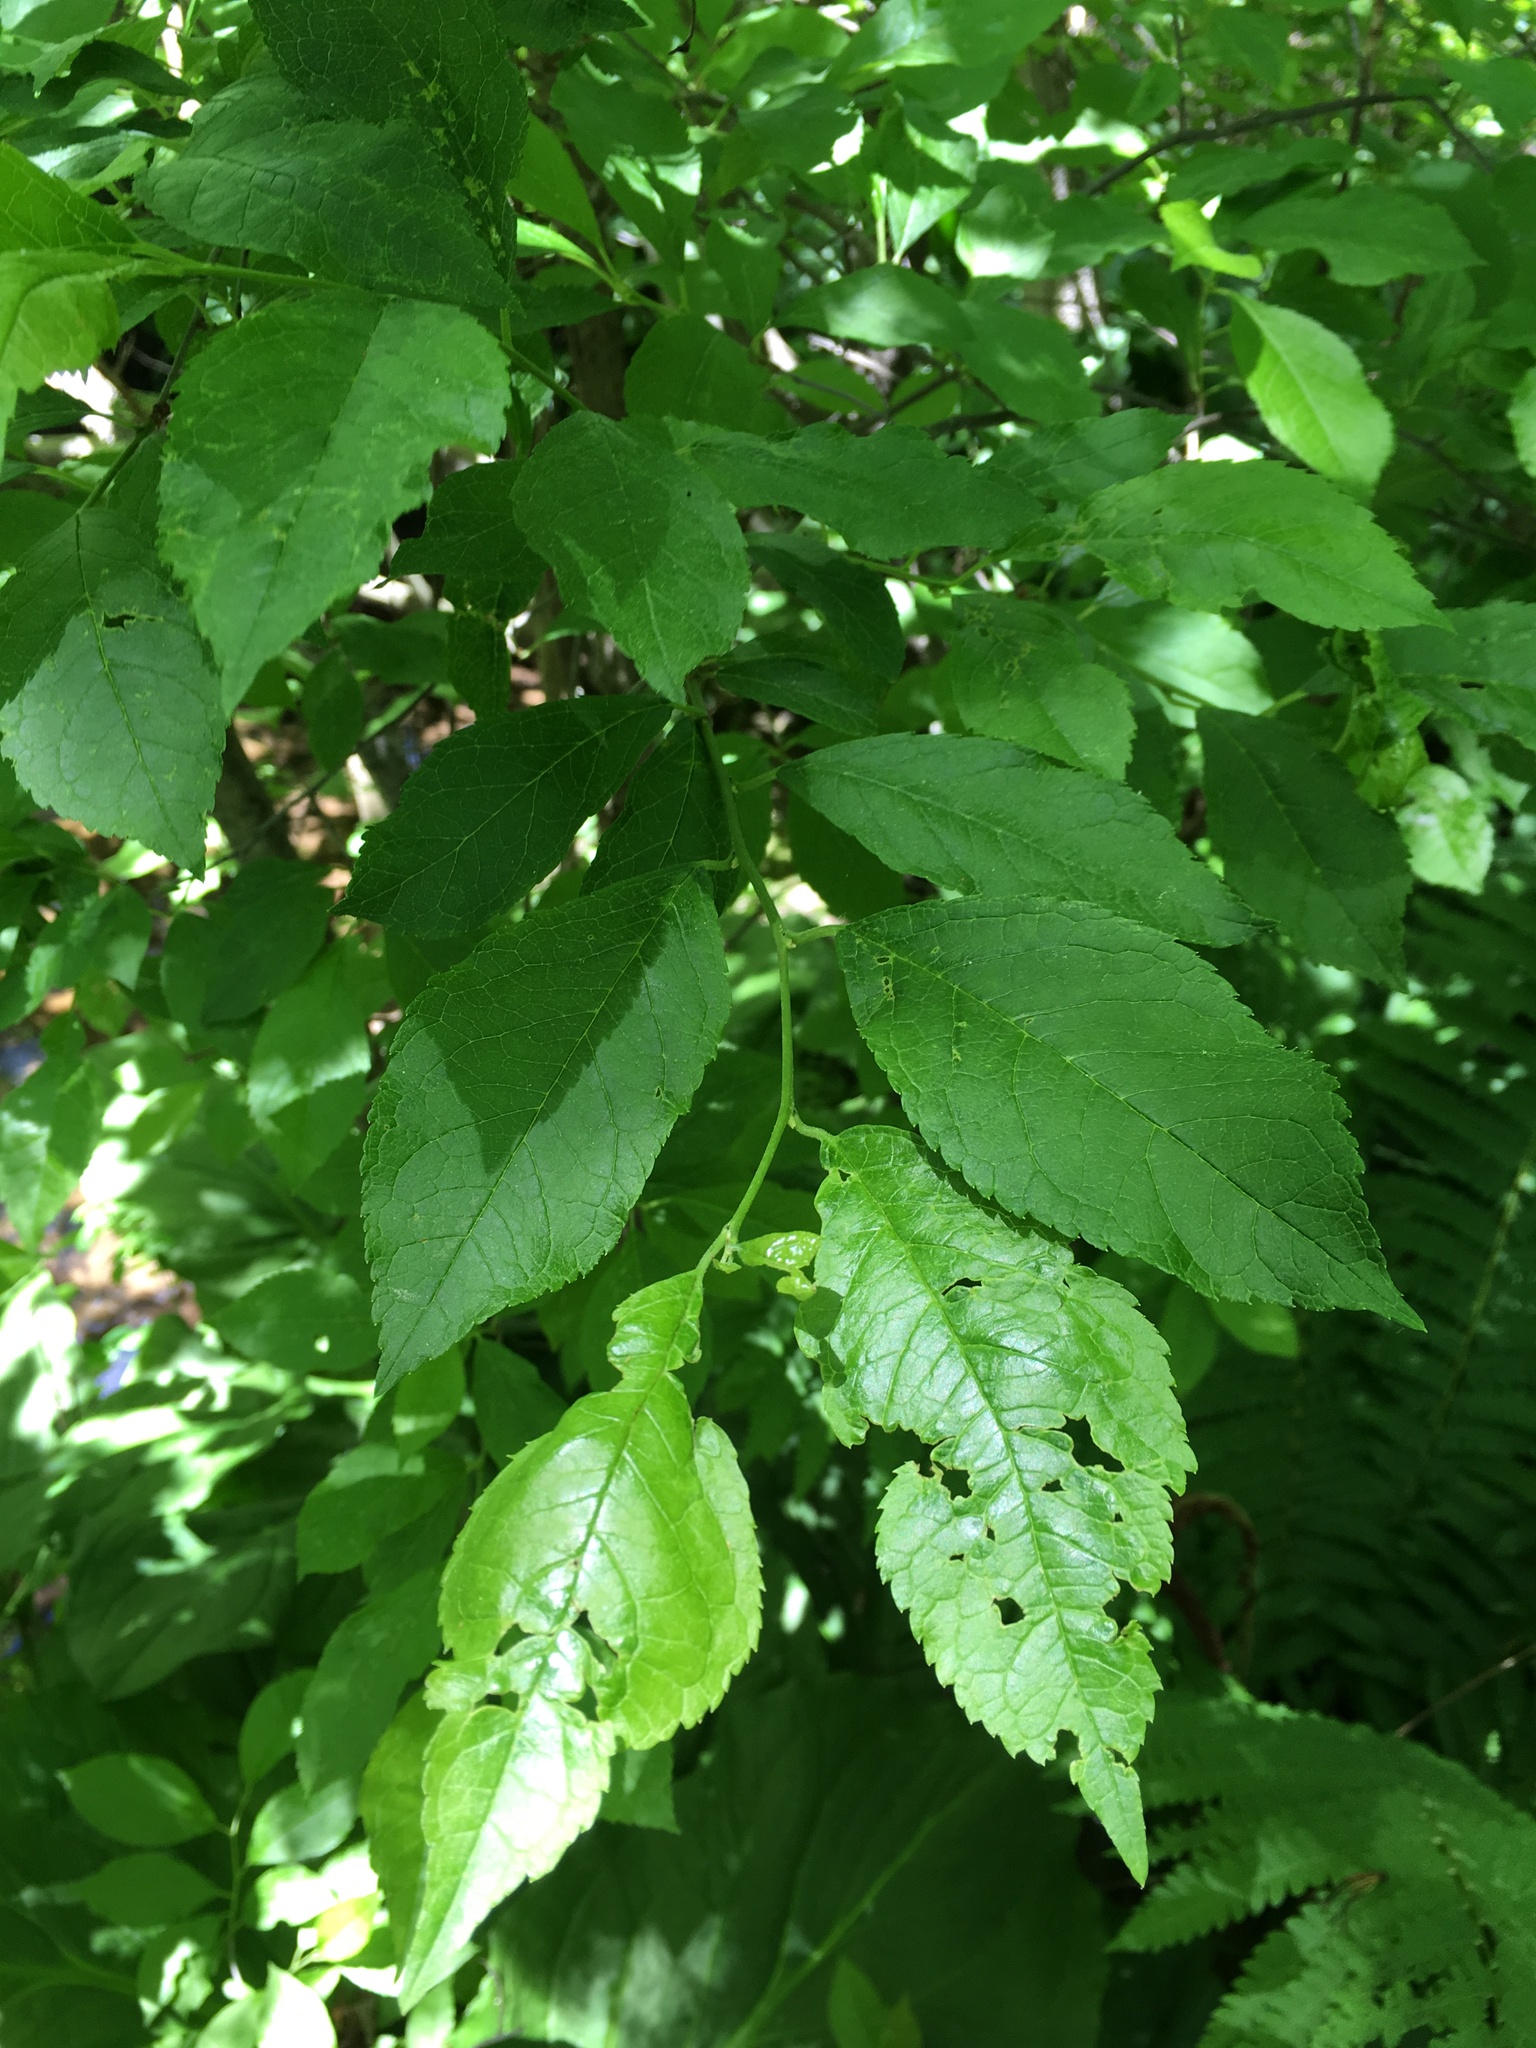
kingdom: Plantae
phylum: Tracheophyta
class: Magnoliopsida
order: Aquifoliales
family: Aquifoliaceae
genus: Ilex
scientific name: Ilex verticillata
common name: Virginia winterberry
